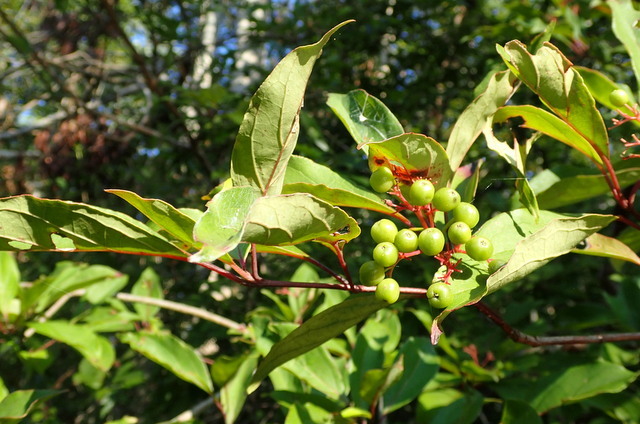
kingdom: Plantae
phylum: Tracheophyta
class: Magnoliopsida
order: Cornales
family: Cornaceae
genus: Cornus
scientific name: Cornus foemina
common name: Swamp dogwood
